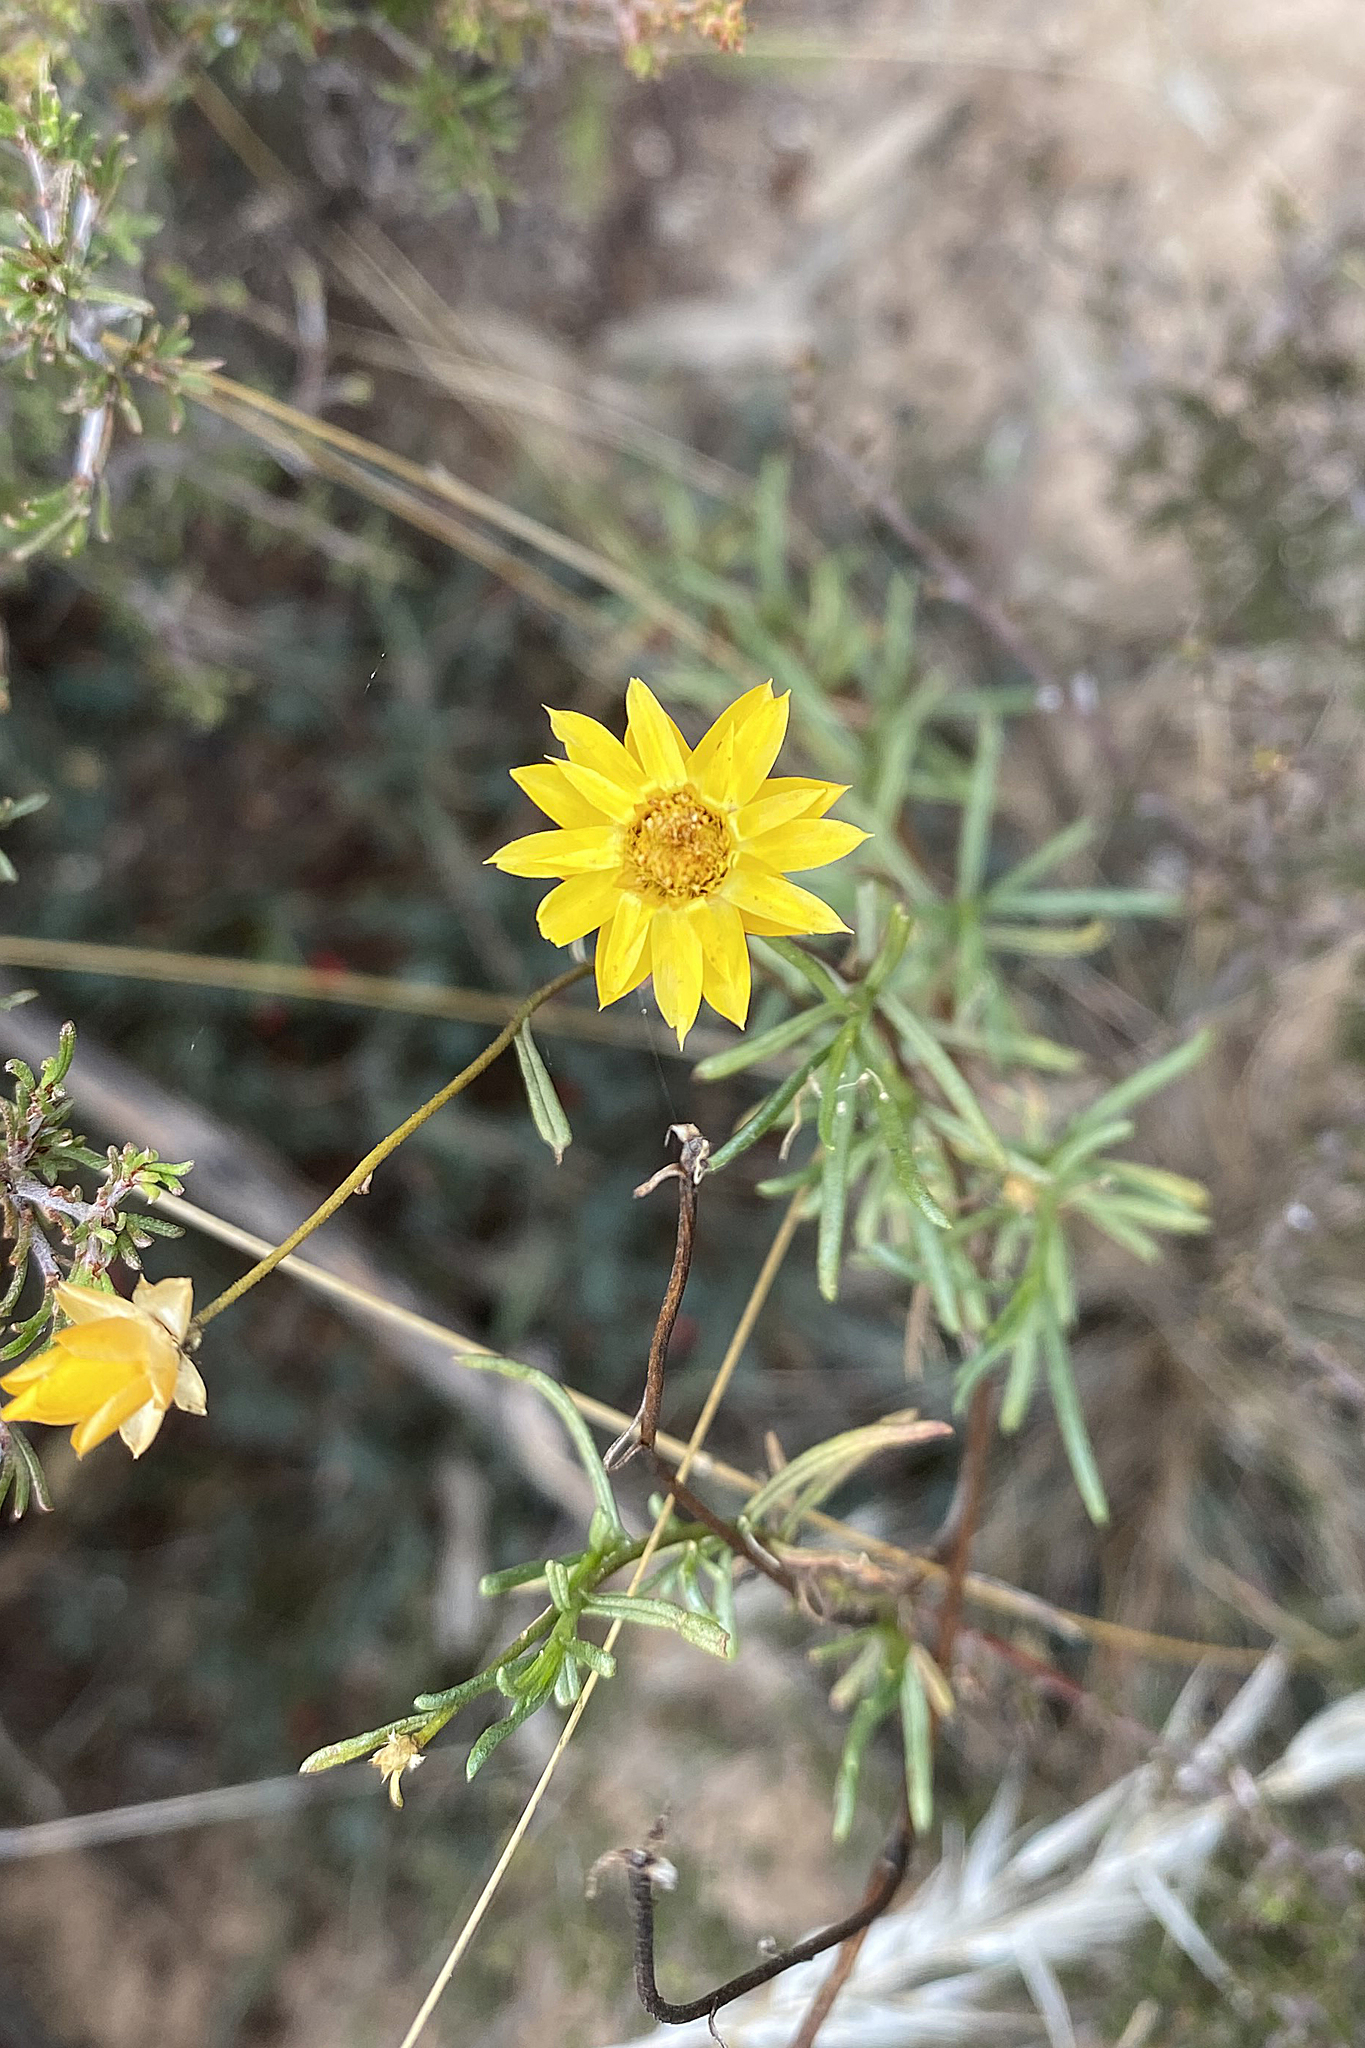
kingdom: Plantae
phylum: Tracheophyta
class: Magnoliopsida
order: Asterales
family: Asteraceae
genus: Xerochrysum
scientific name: Xerochrysum viscosum
